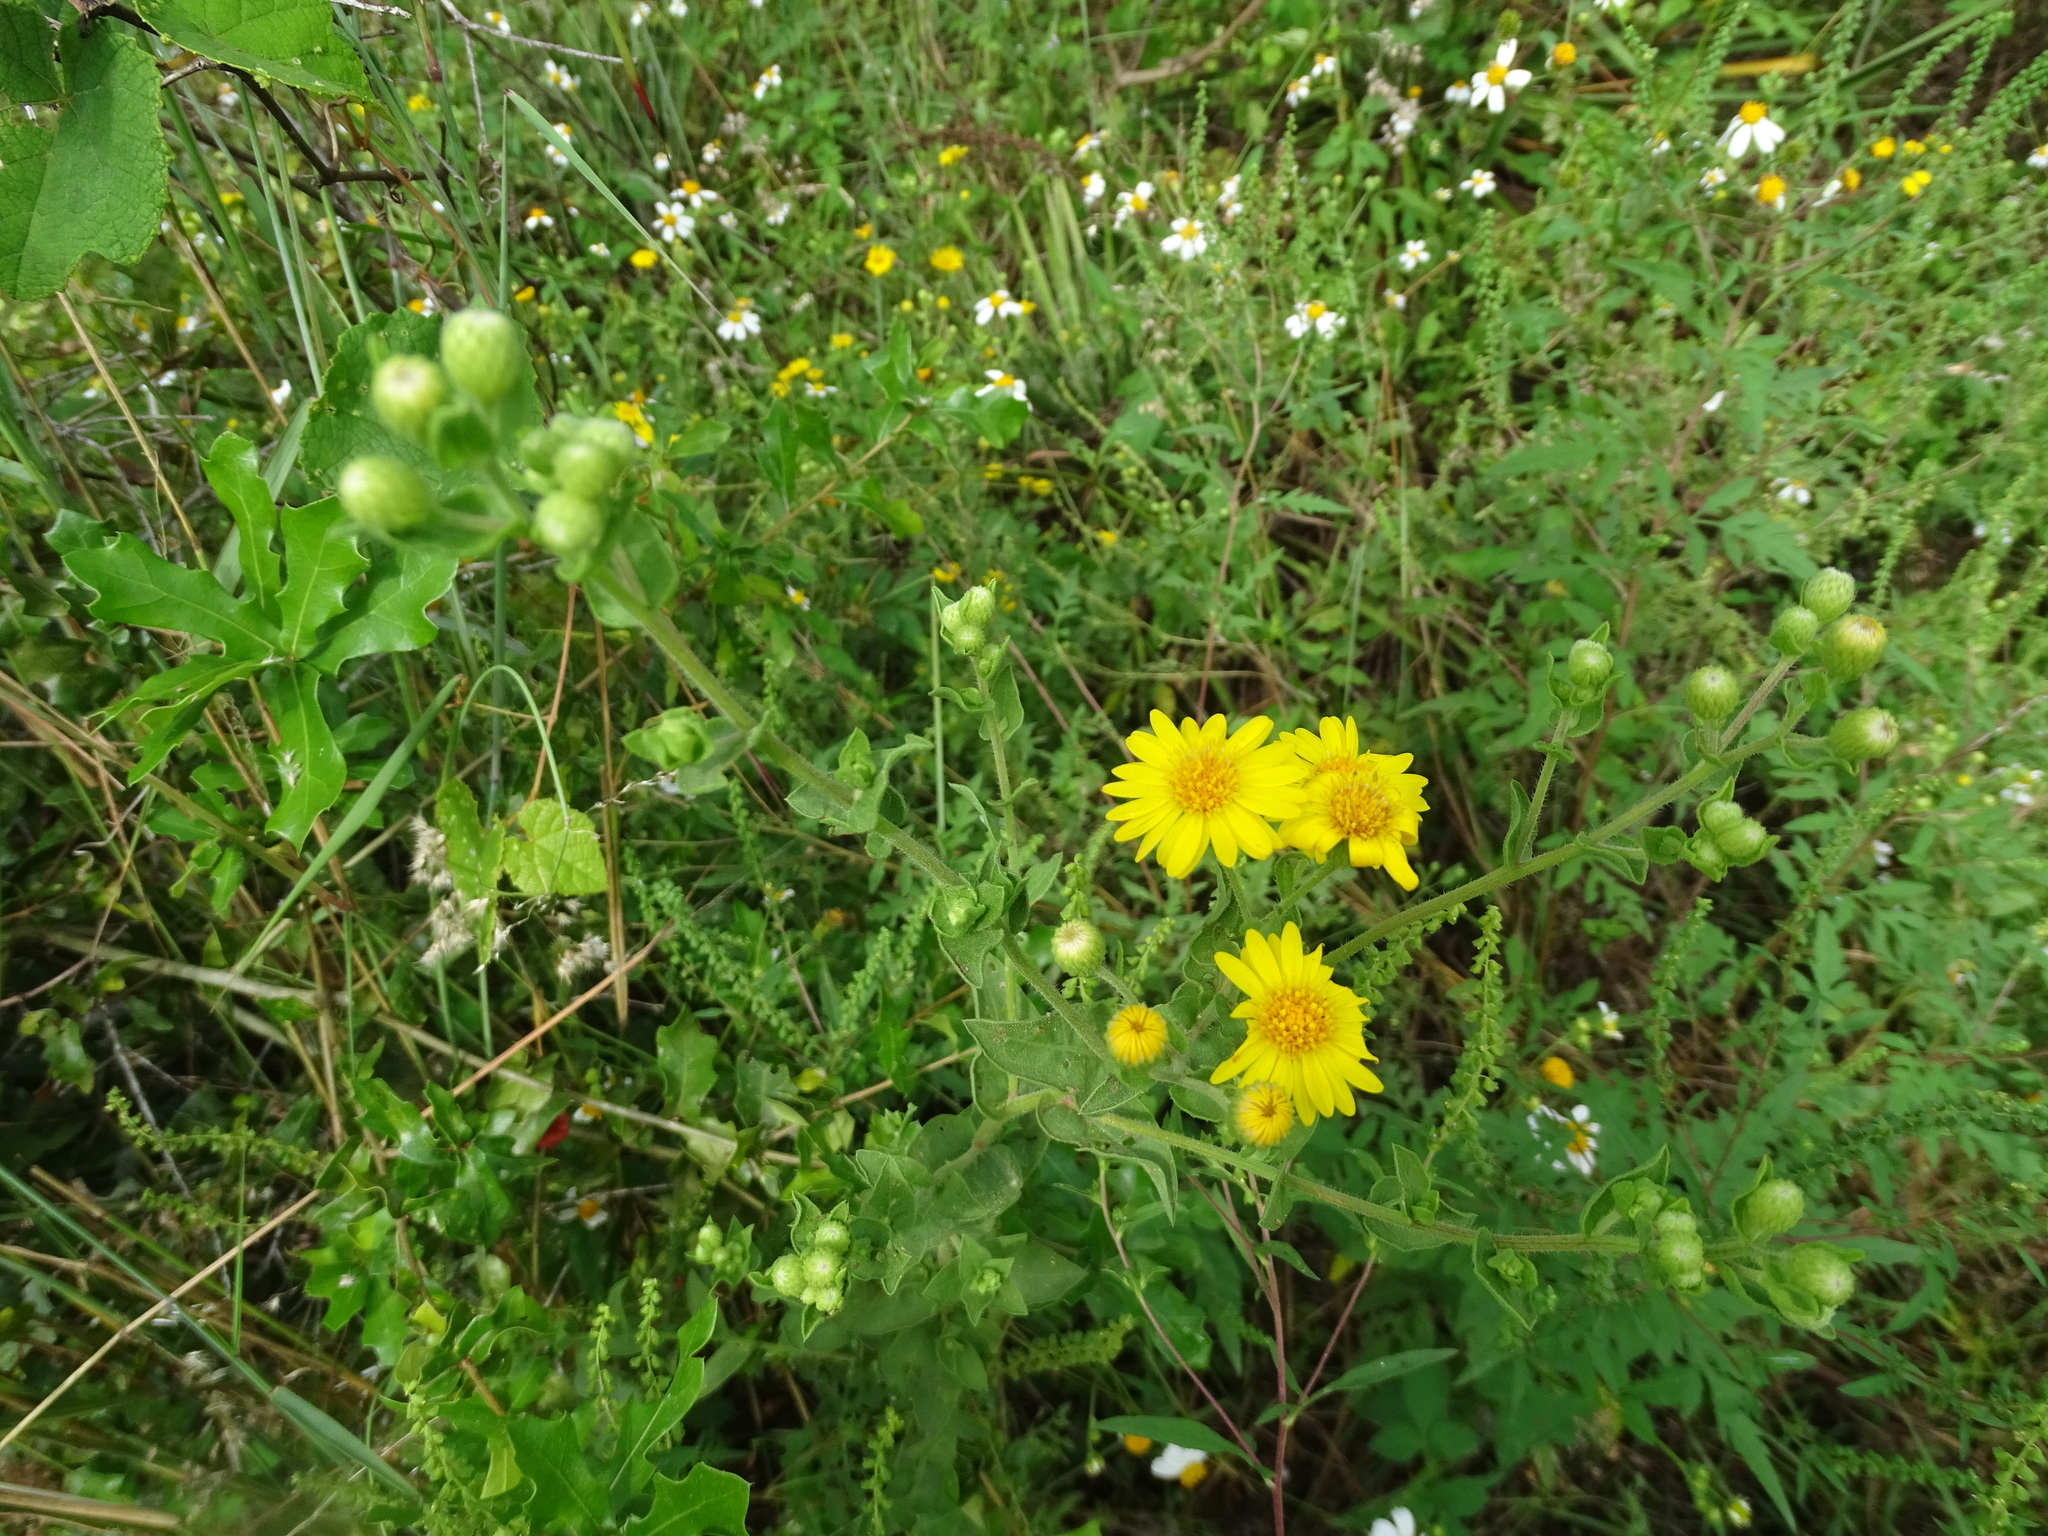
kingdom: Plantae
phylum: Tracheophyta
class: Magnoliopsida
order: Asterales
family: Asteraceae
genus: Heterotheca
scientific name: Heterotheca subaxillaris
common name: Camphorweed
